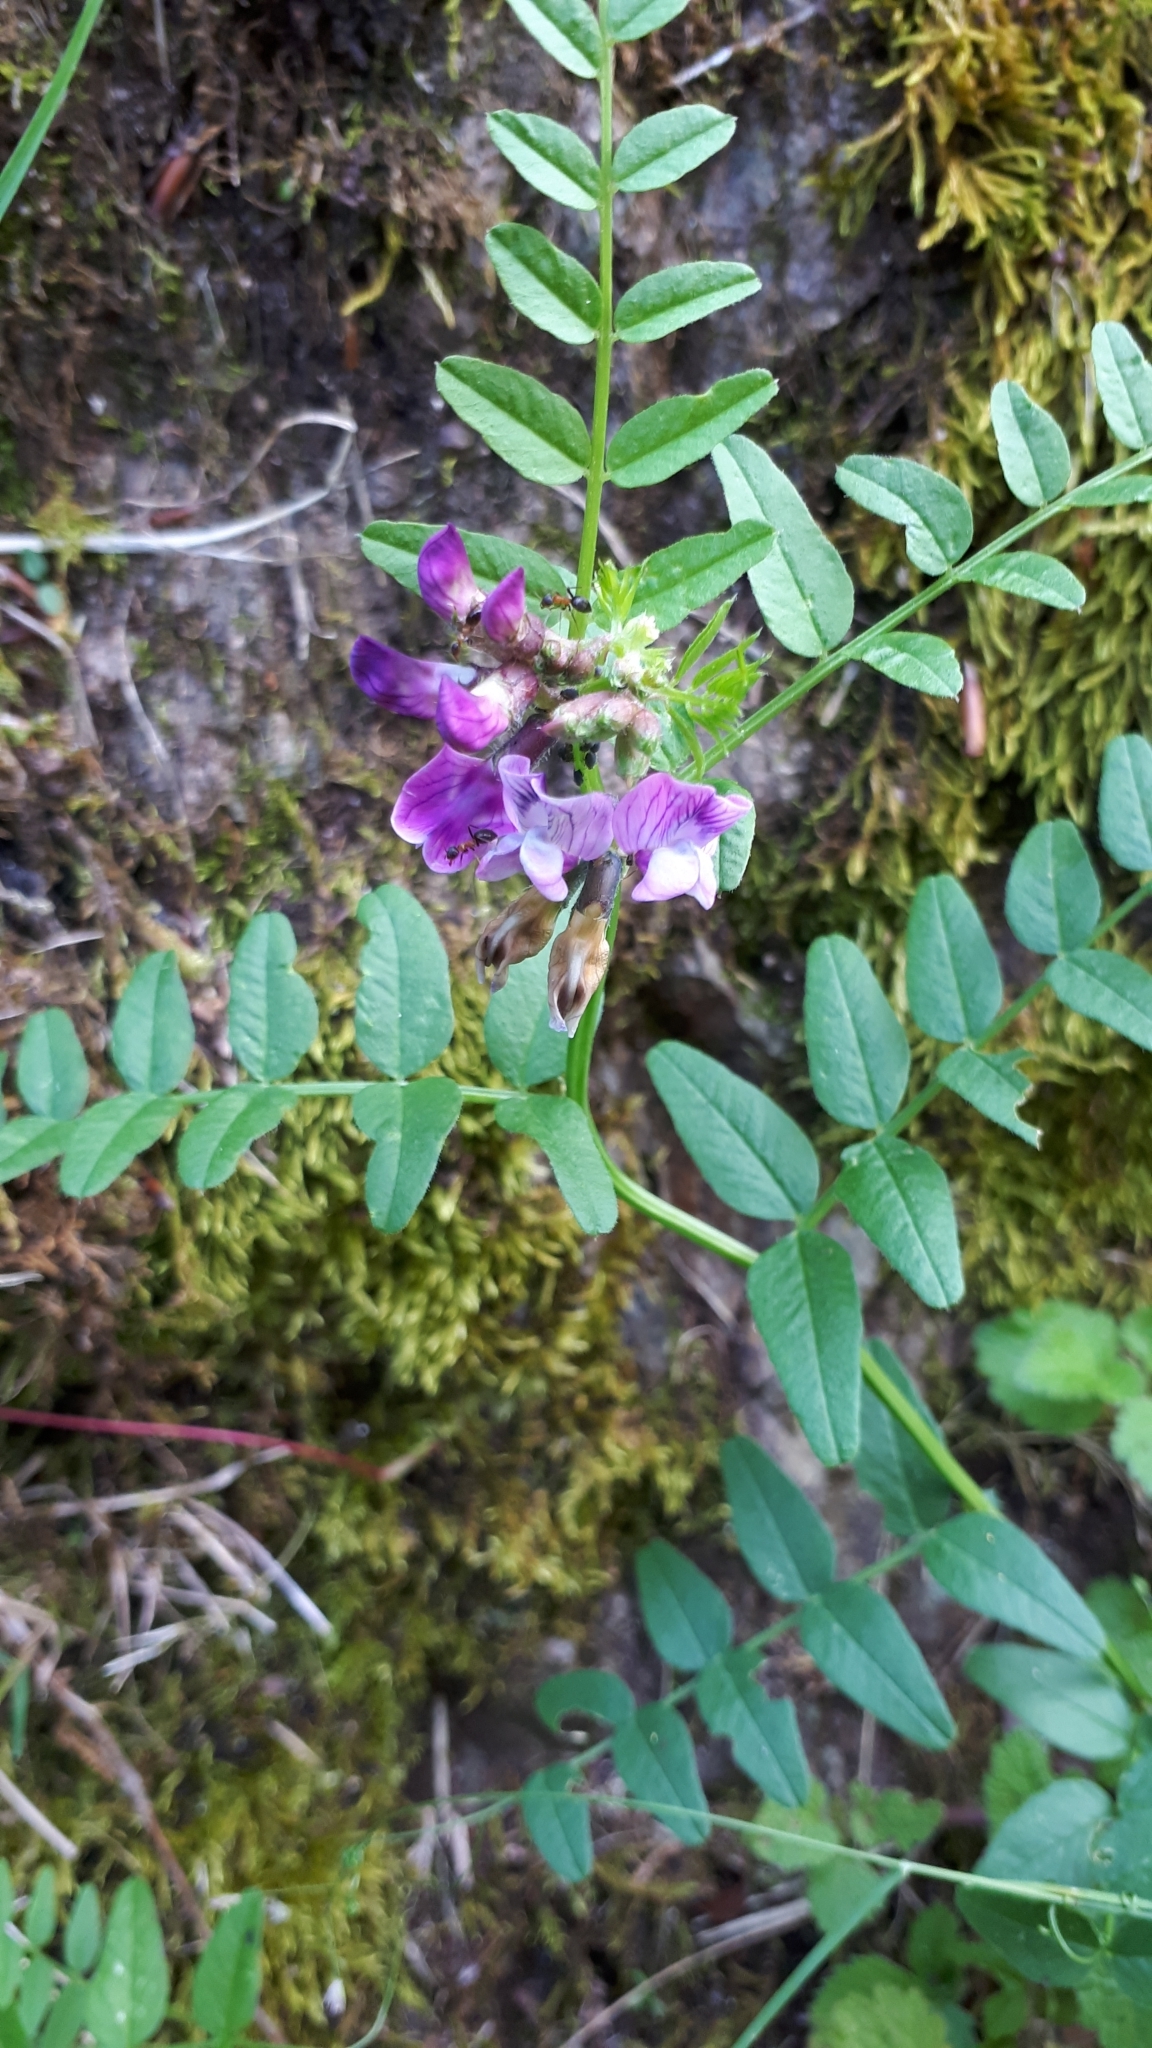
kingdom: Plantae
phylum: Tracheophyta
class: Magnoliopsida
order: Fabales
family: Fabaceae
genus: Vicia
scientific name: Vicia sepium
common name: Bush vetch
